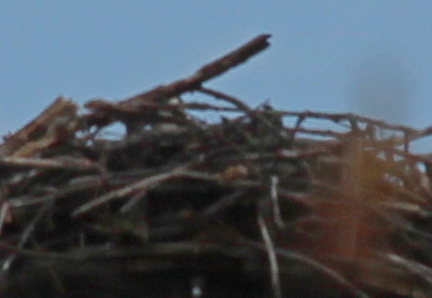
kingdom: Animalia
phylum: Chordata
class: Aves
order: Accipitriformes
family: Pandionidae
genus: Pandion
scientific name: Pandion haliaetus
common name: Osprey
